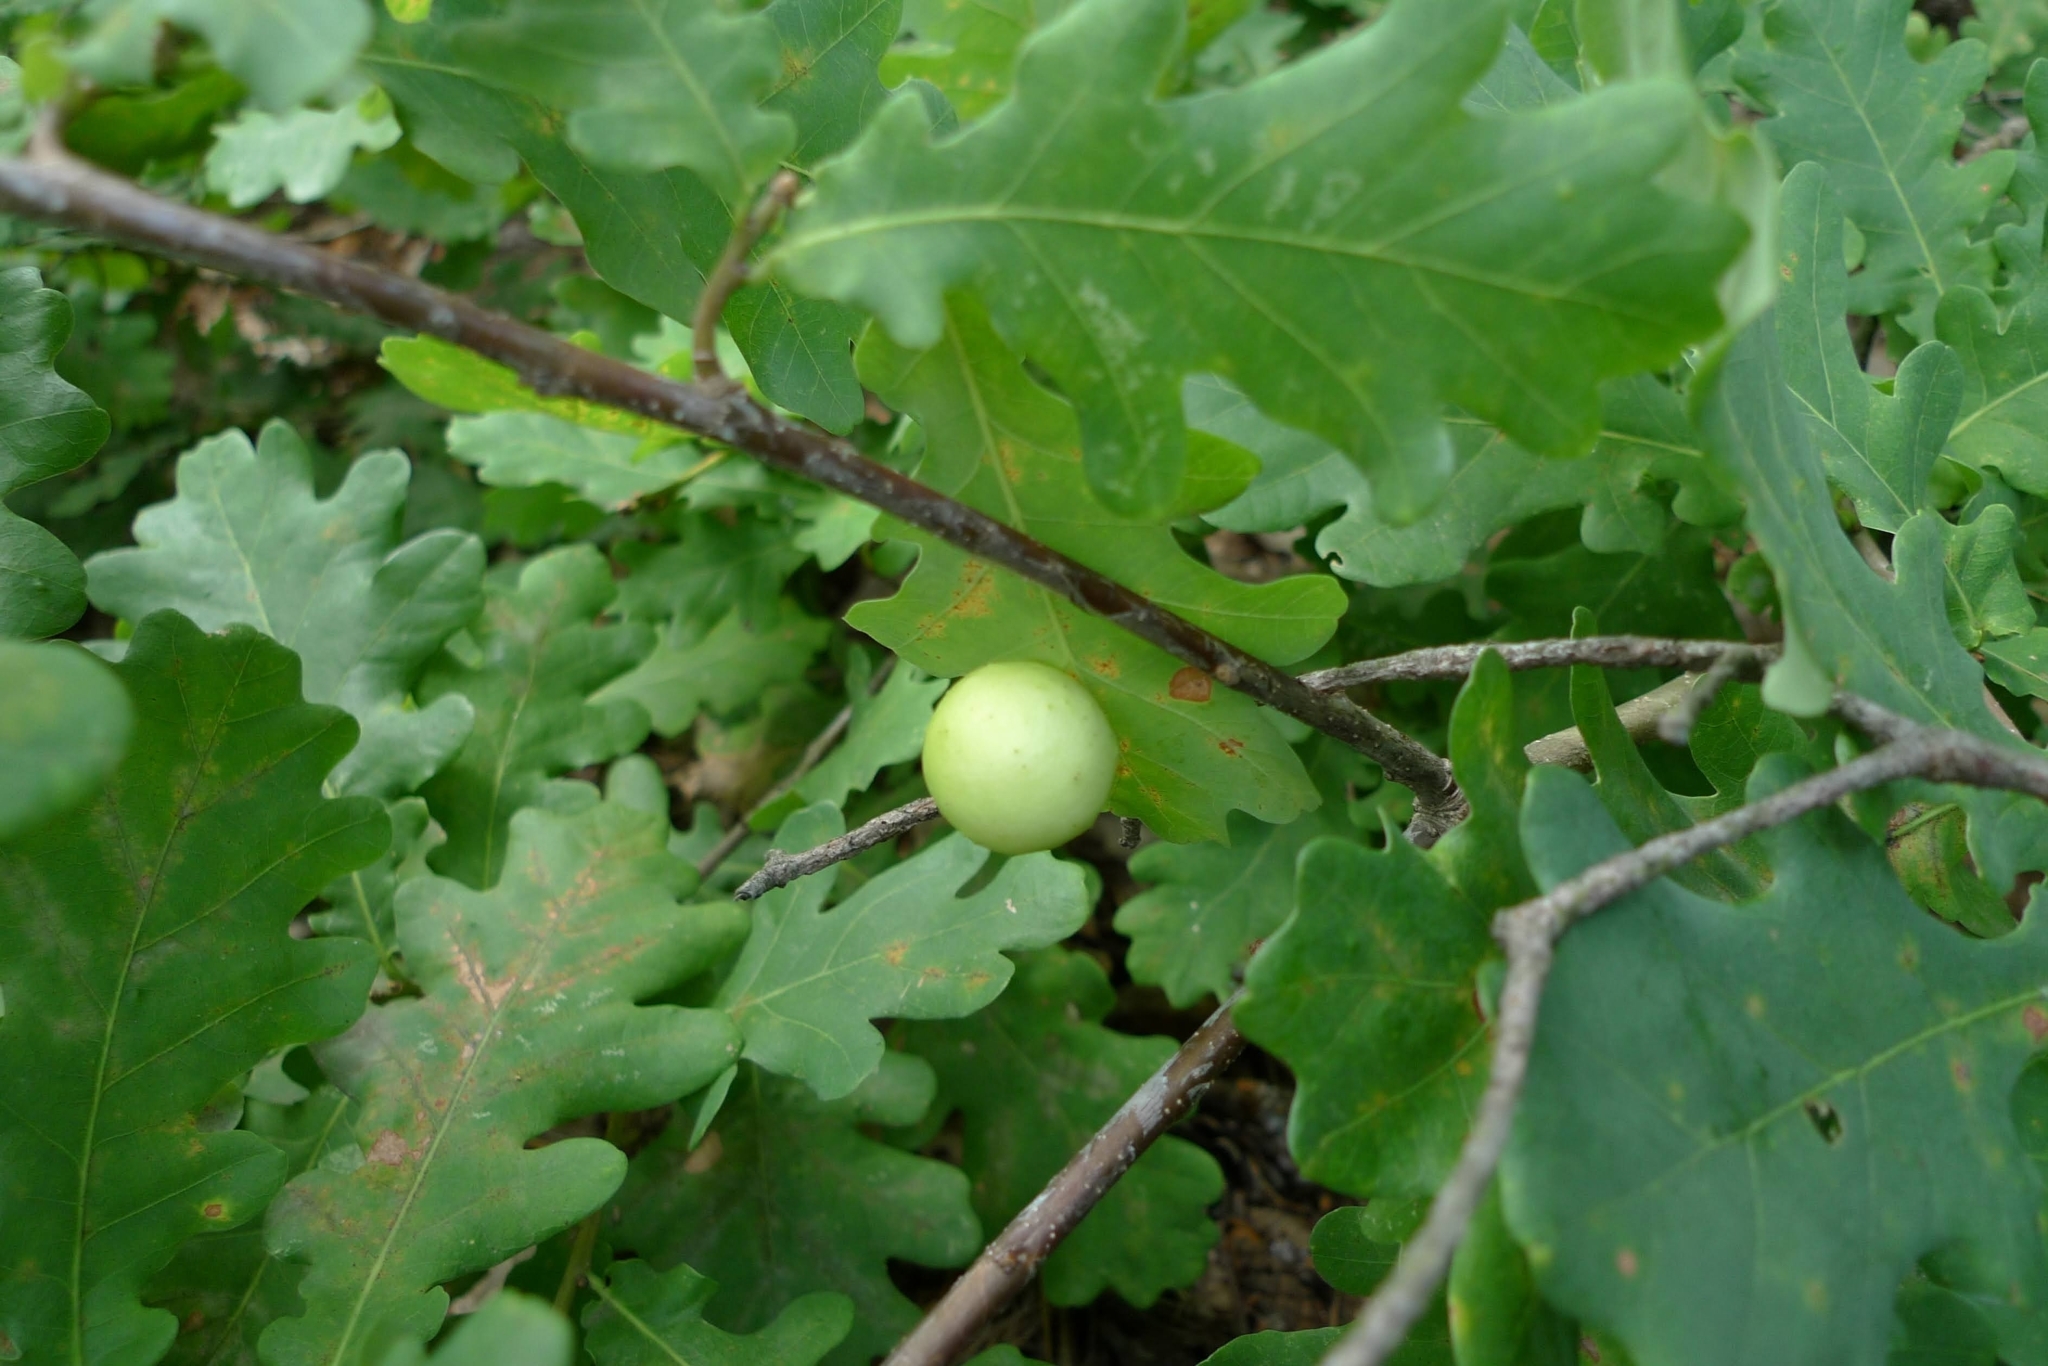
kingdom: Animalia
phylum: Arthropoda
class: Insecta
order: Hymenoptera
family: Cynipidae
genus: Cynips
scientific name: Cynips quercusfolii
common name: Cherry gall
